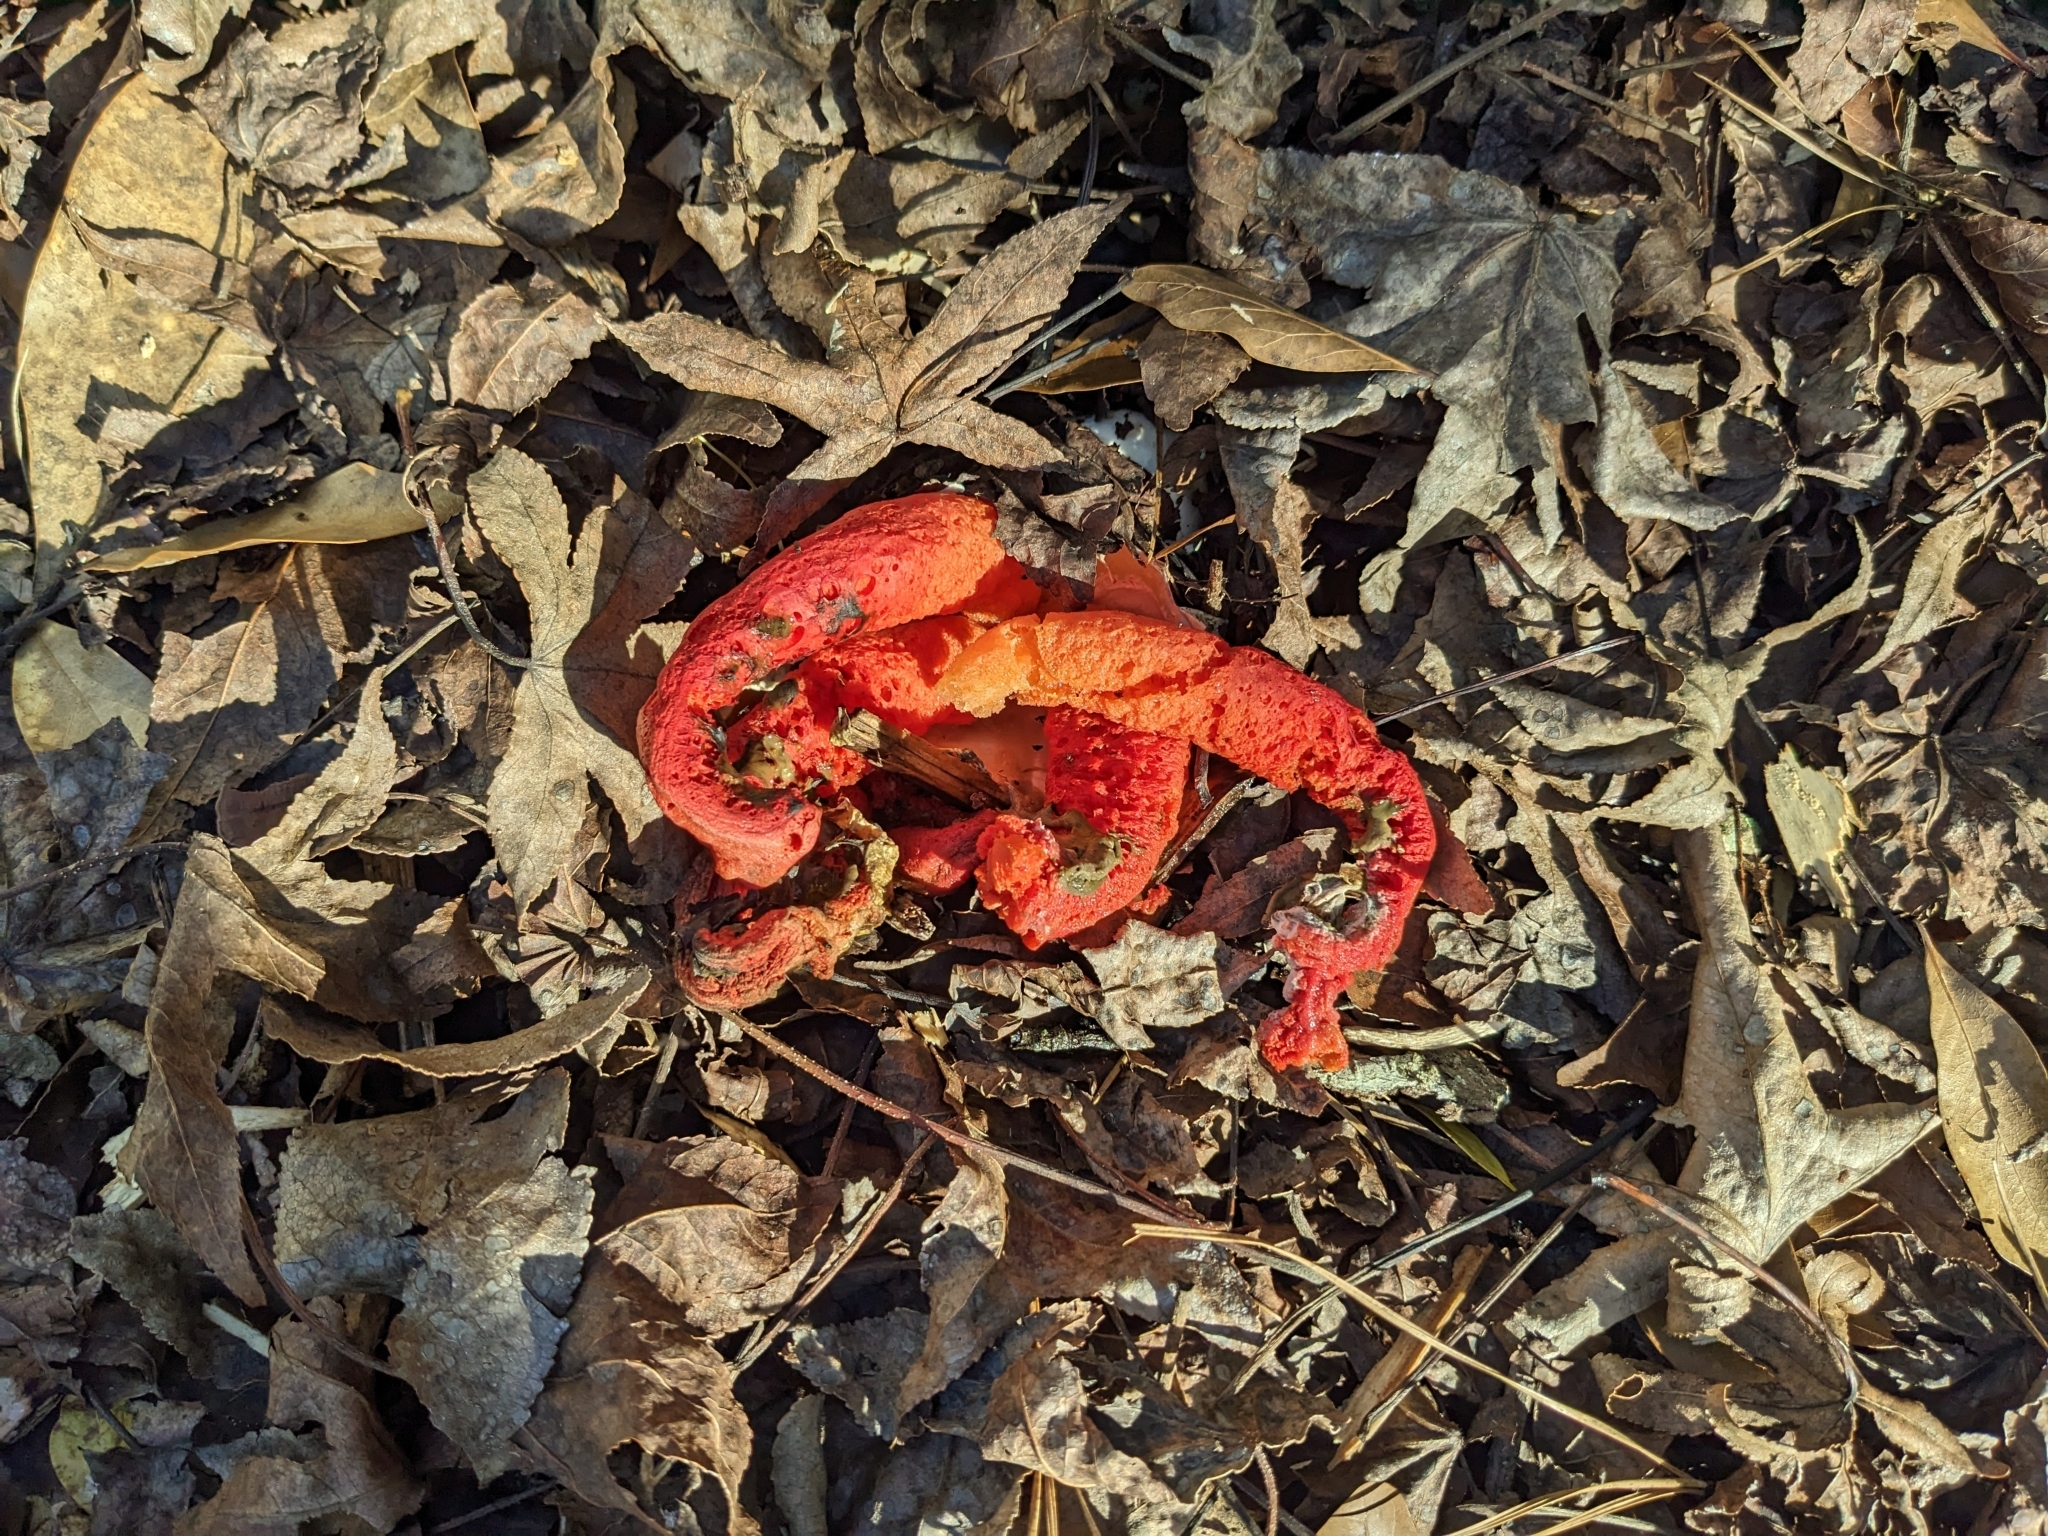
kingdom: Fungi
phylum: Basidiomycota
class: Agaricomycetes
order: Phallales
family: Phallaceae
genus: Clathrus
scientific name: Clathrus columnatus
